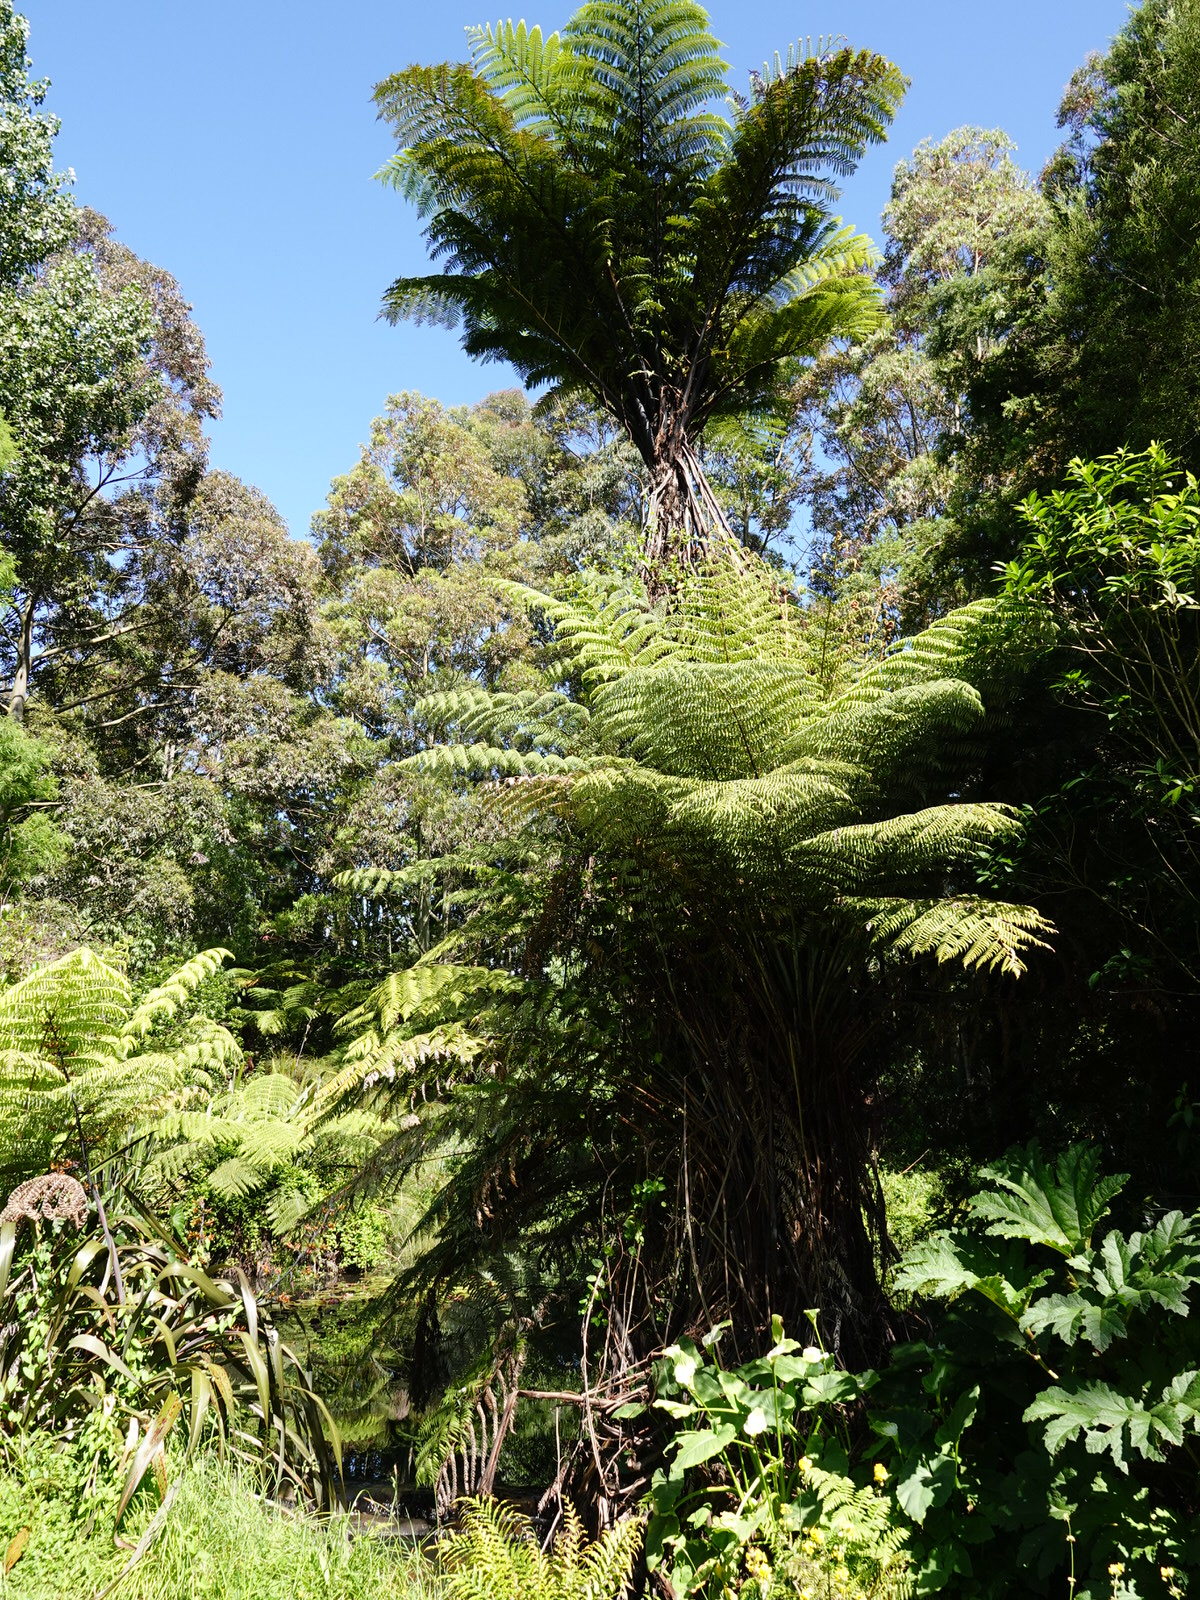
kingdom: Plantae
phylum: Tracheophyta
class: Polypodiopsida
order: Cyatheales
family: Cyatheaceae
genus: Sphaeropteris
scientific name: Sphaeropteris medullaris
